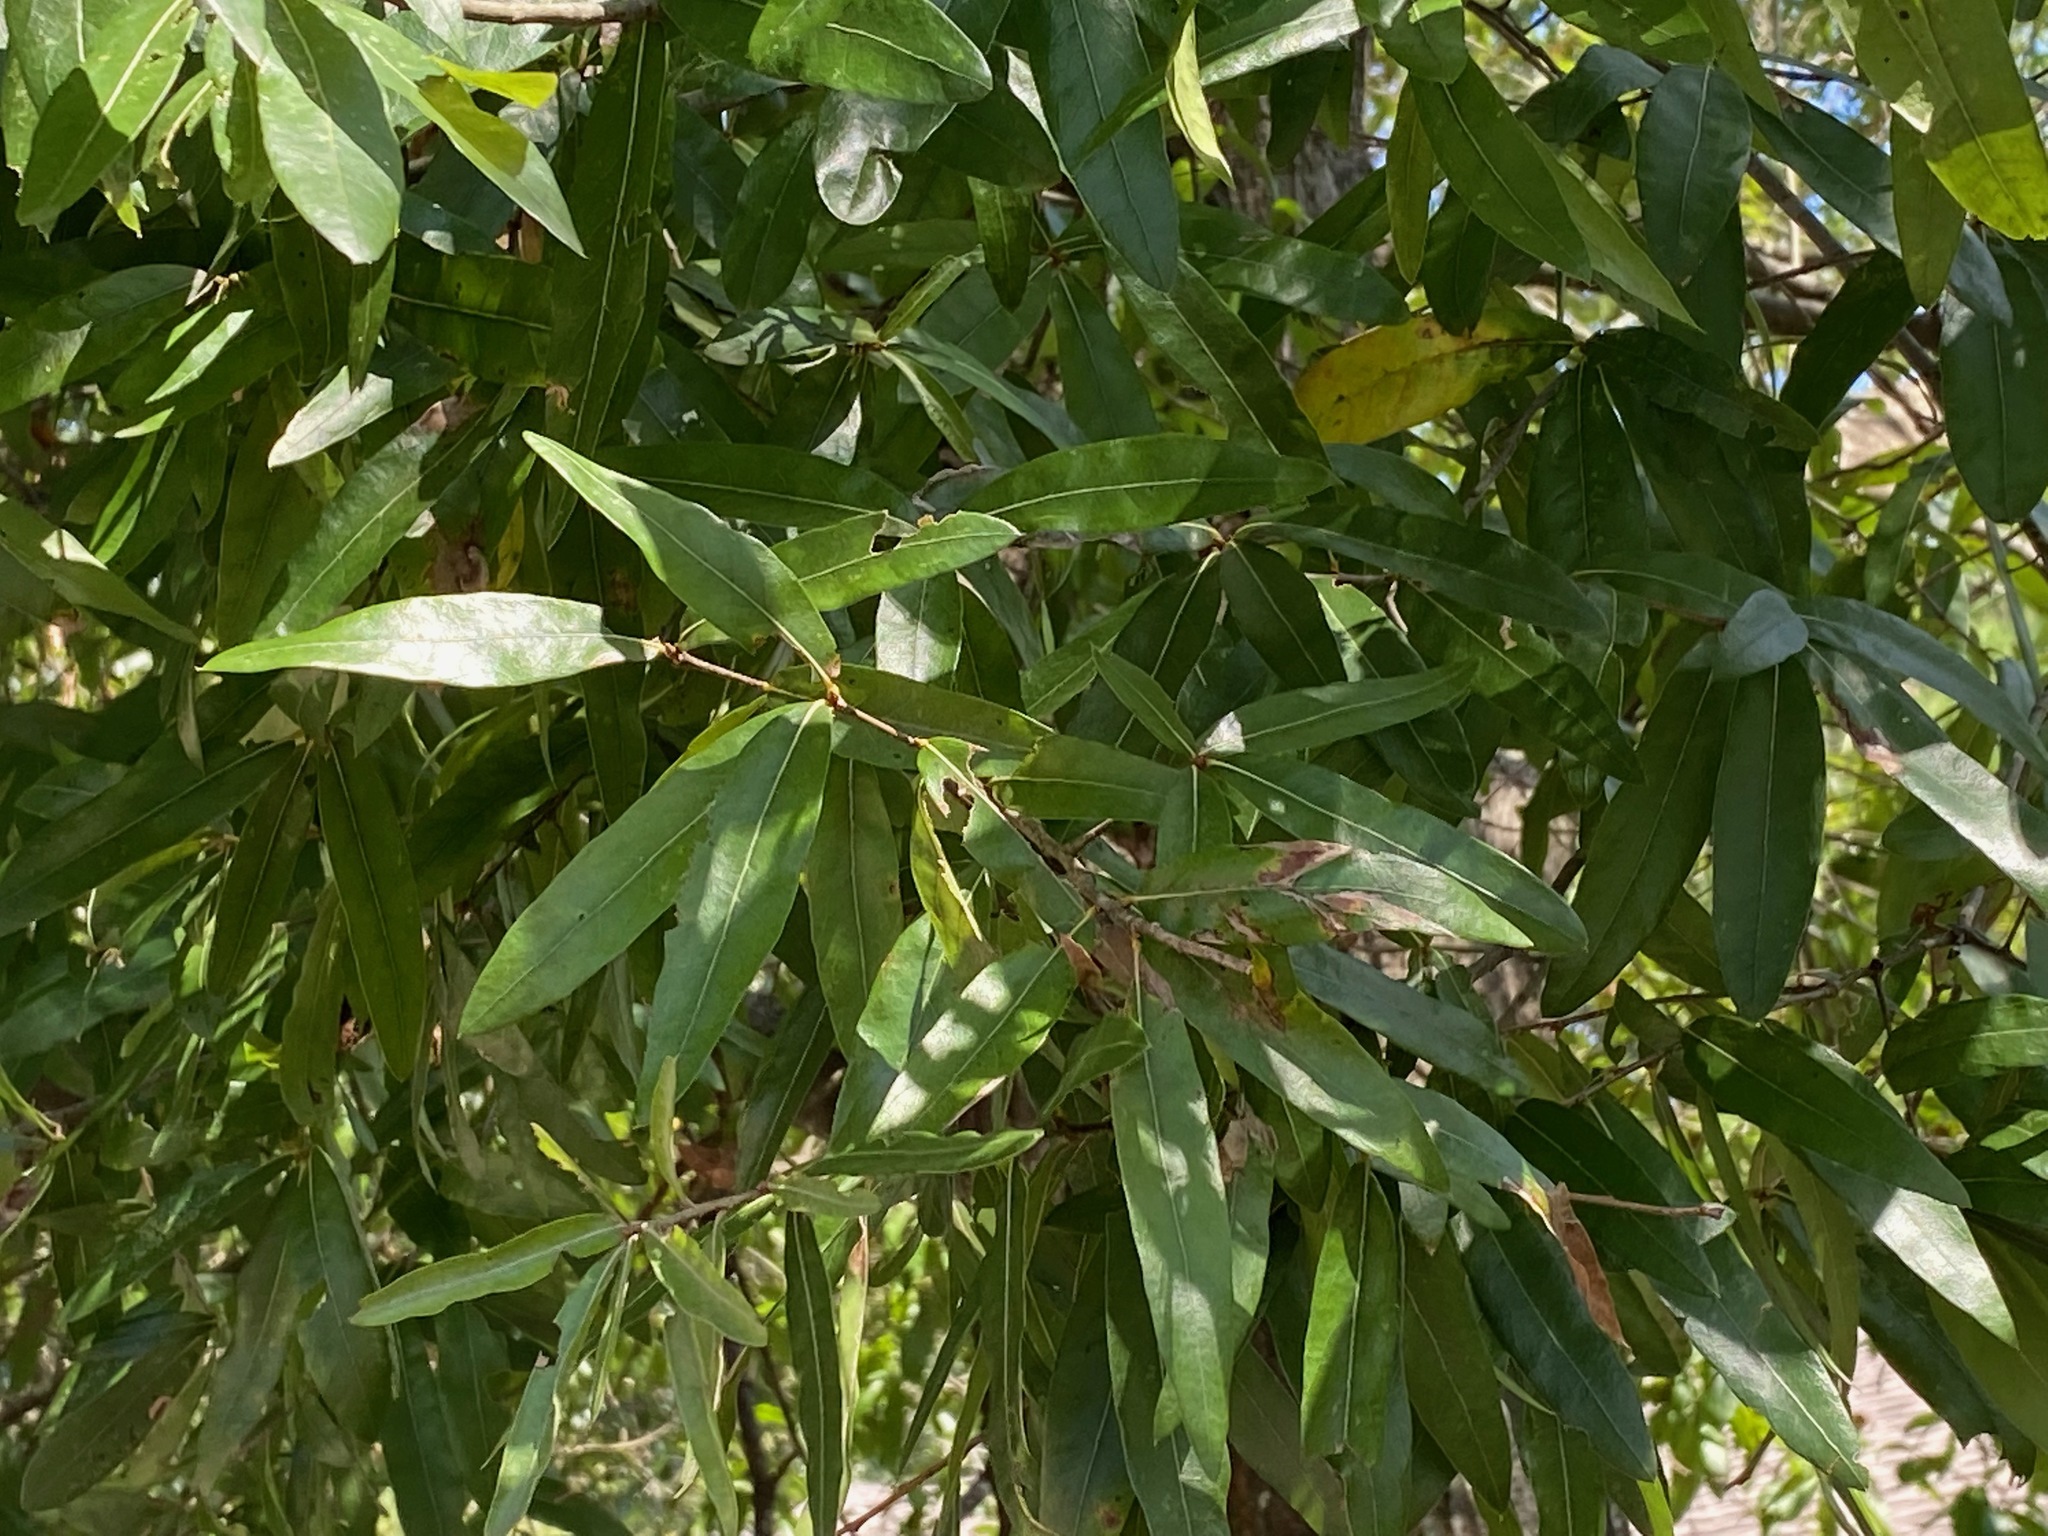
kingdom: Plantae
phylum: Tracheophyta
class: Magnoliopsida
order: Fagales
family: Fagaceae
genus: Quercus
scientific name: Quercus phellos
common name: Willow oak
